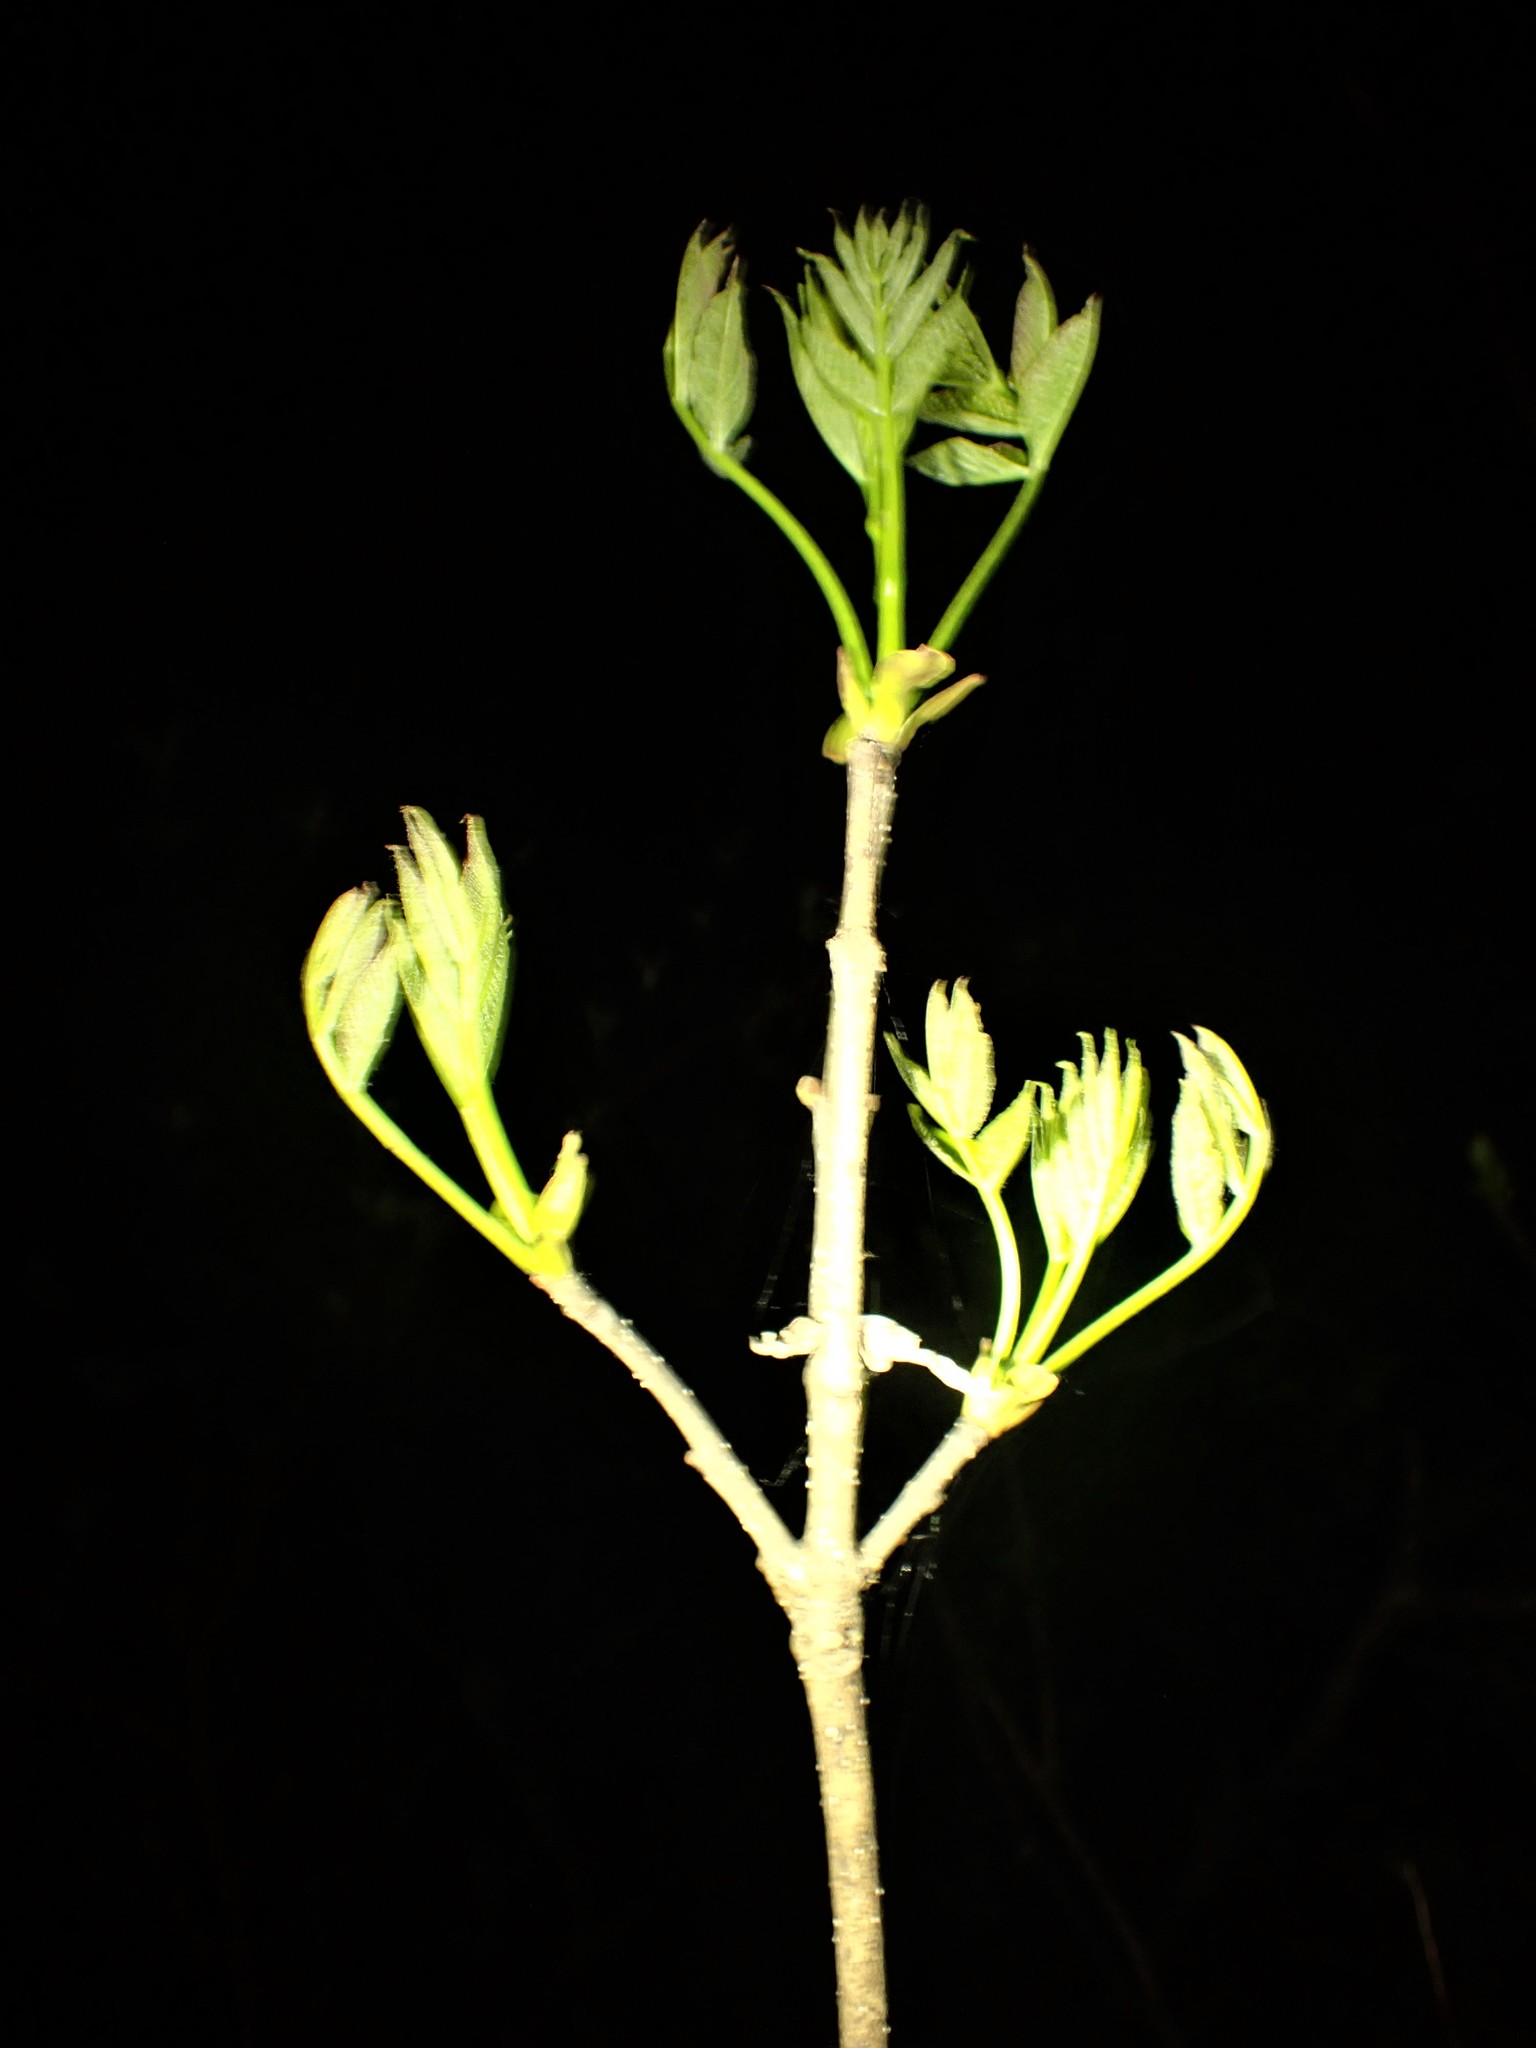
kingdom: Plantae
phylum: Tracheophyta
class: Magnoliopsida
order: Lamiales
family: Oleaceae
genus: Fraxinus
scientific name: Fraxinus nigra
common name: Black ash
